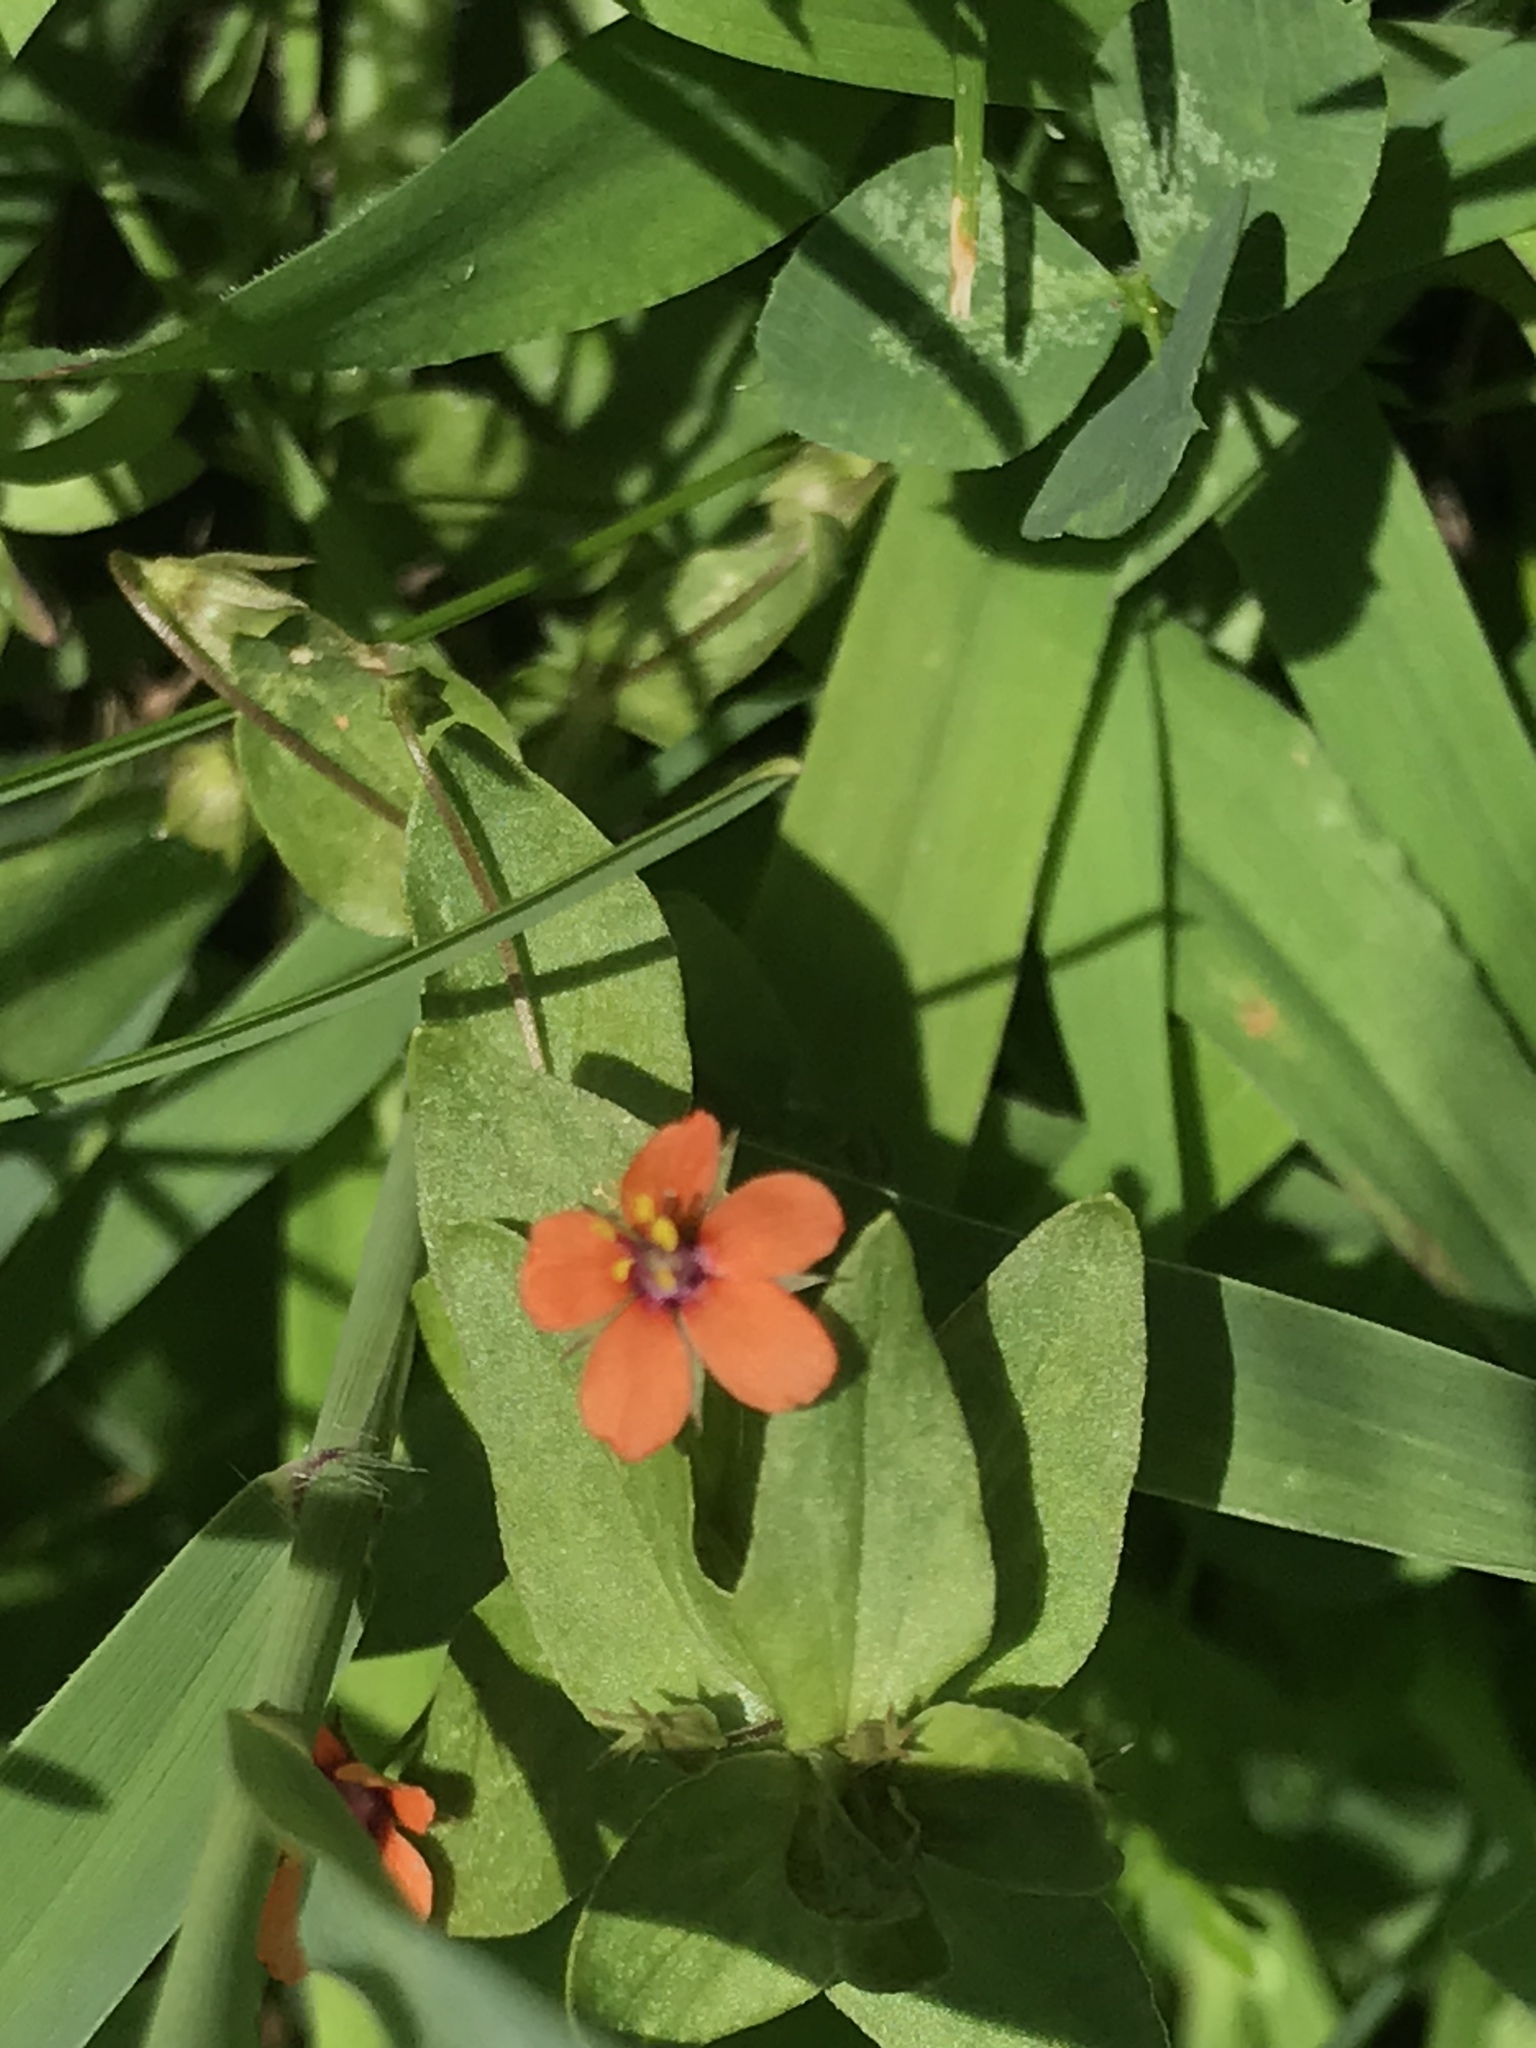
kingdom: Plantae
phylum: Tracheophyta
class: Magnoliopsida
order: Ericales
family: Primulaceae
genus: Lysimachia
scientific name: Lysimachia arvensis
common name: Scarlet pimpernel
